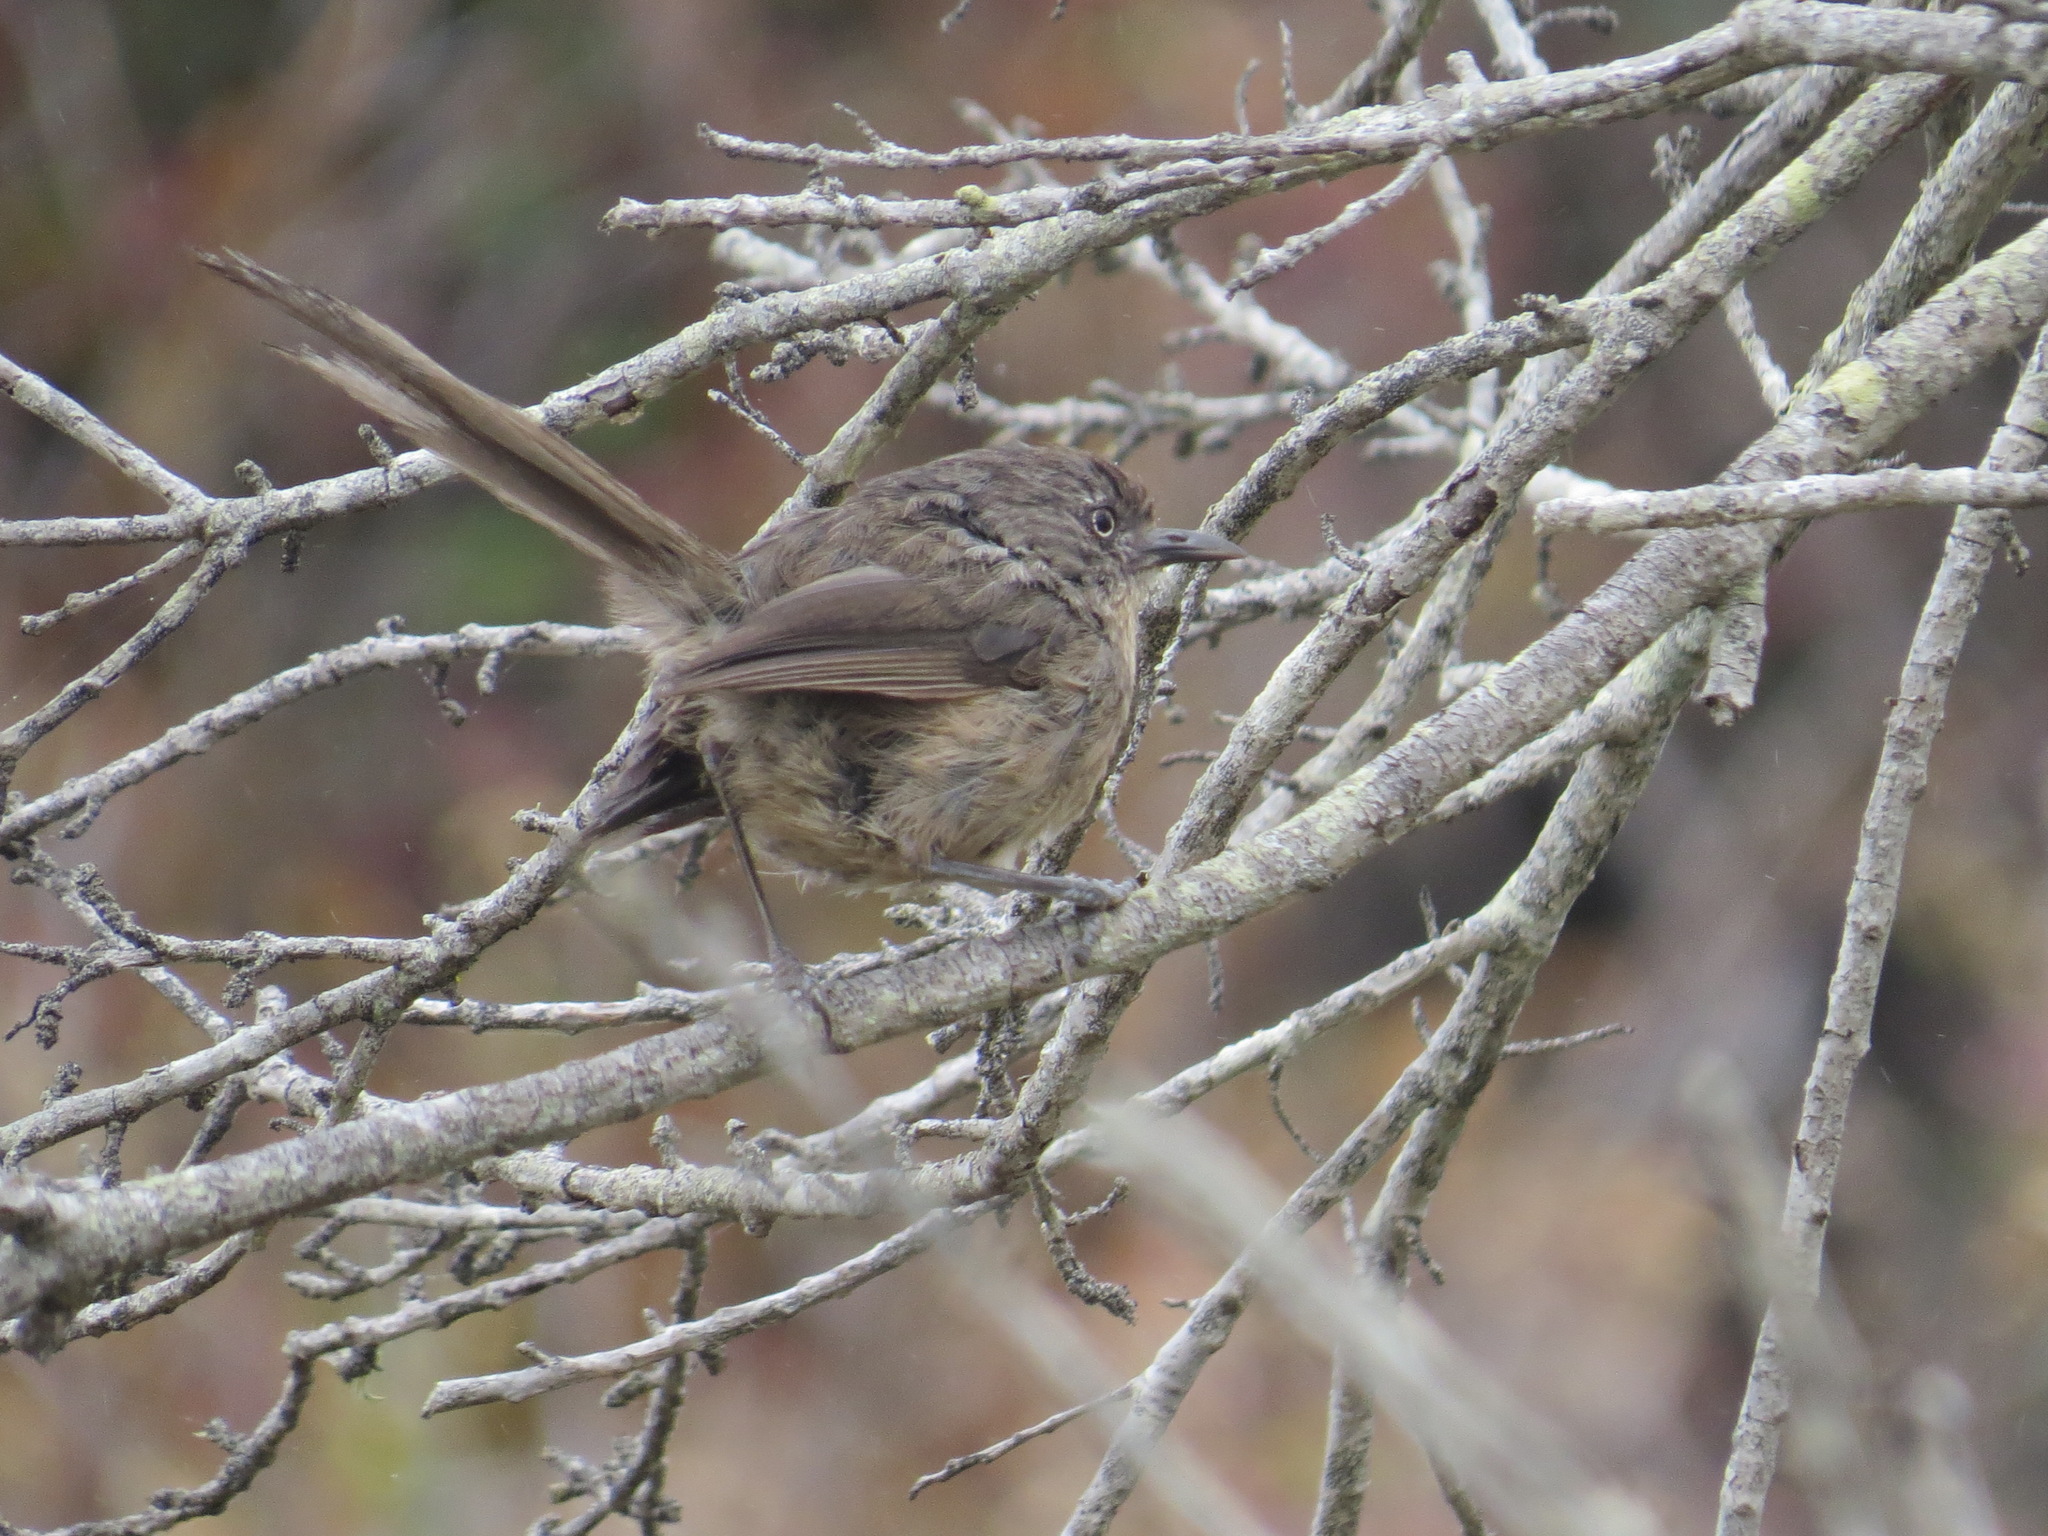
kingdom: Animalia
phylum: Chordata
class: Aves
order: Passeriformes
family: Sylviidae
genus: Chamaea
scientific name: Chamaea fasciata
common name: Wrentit
